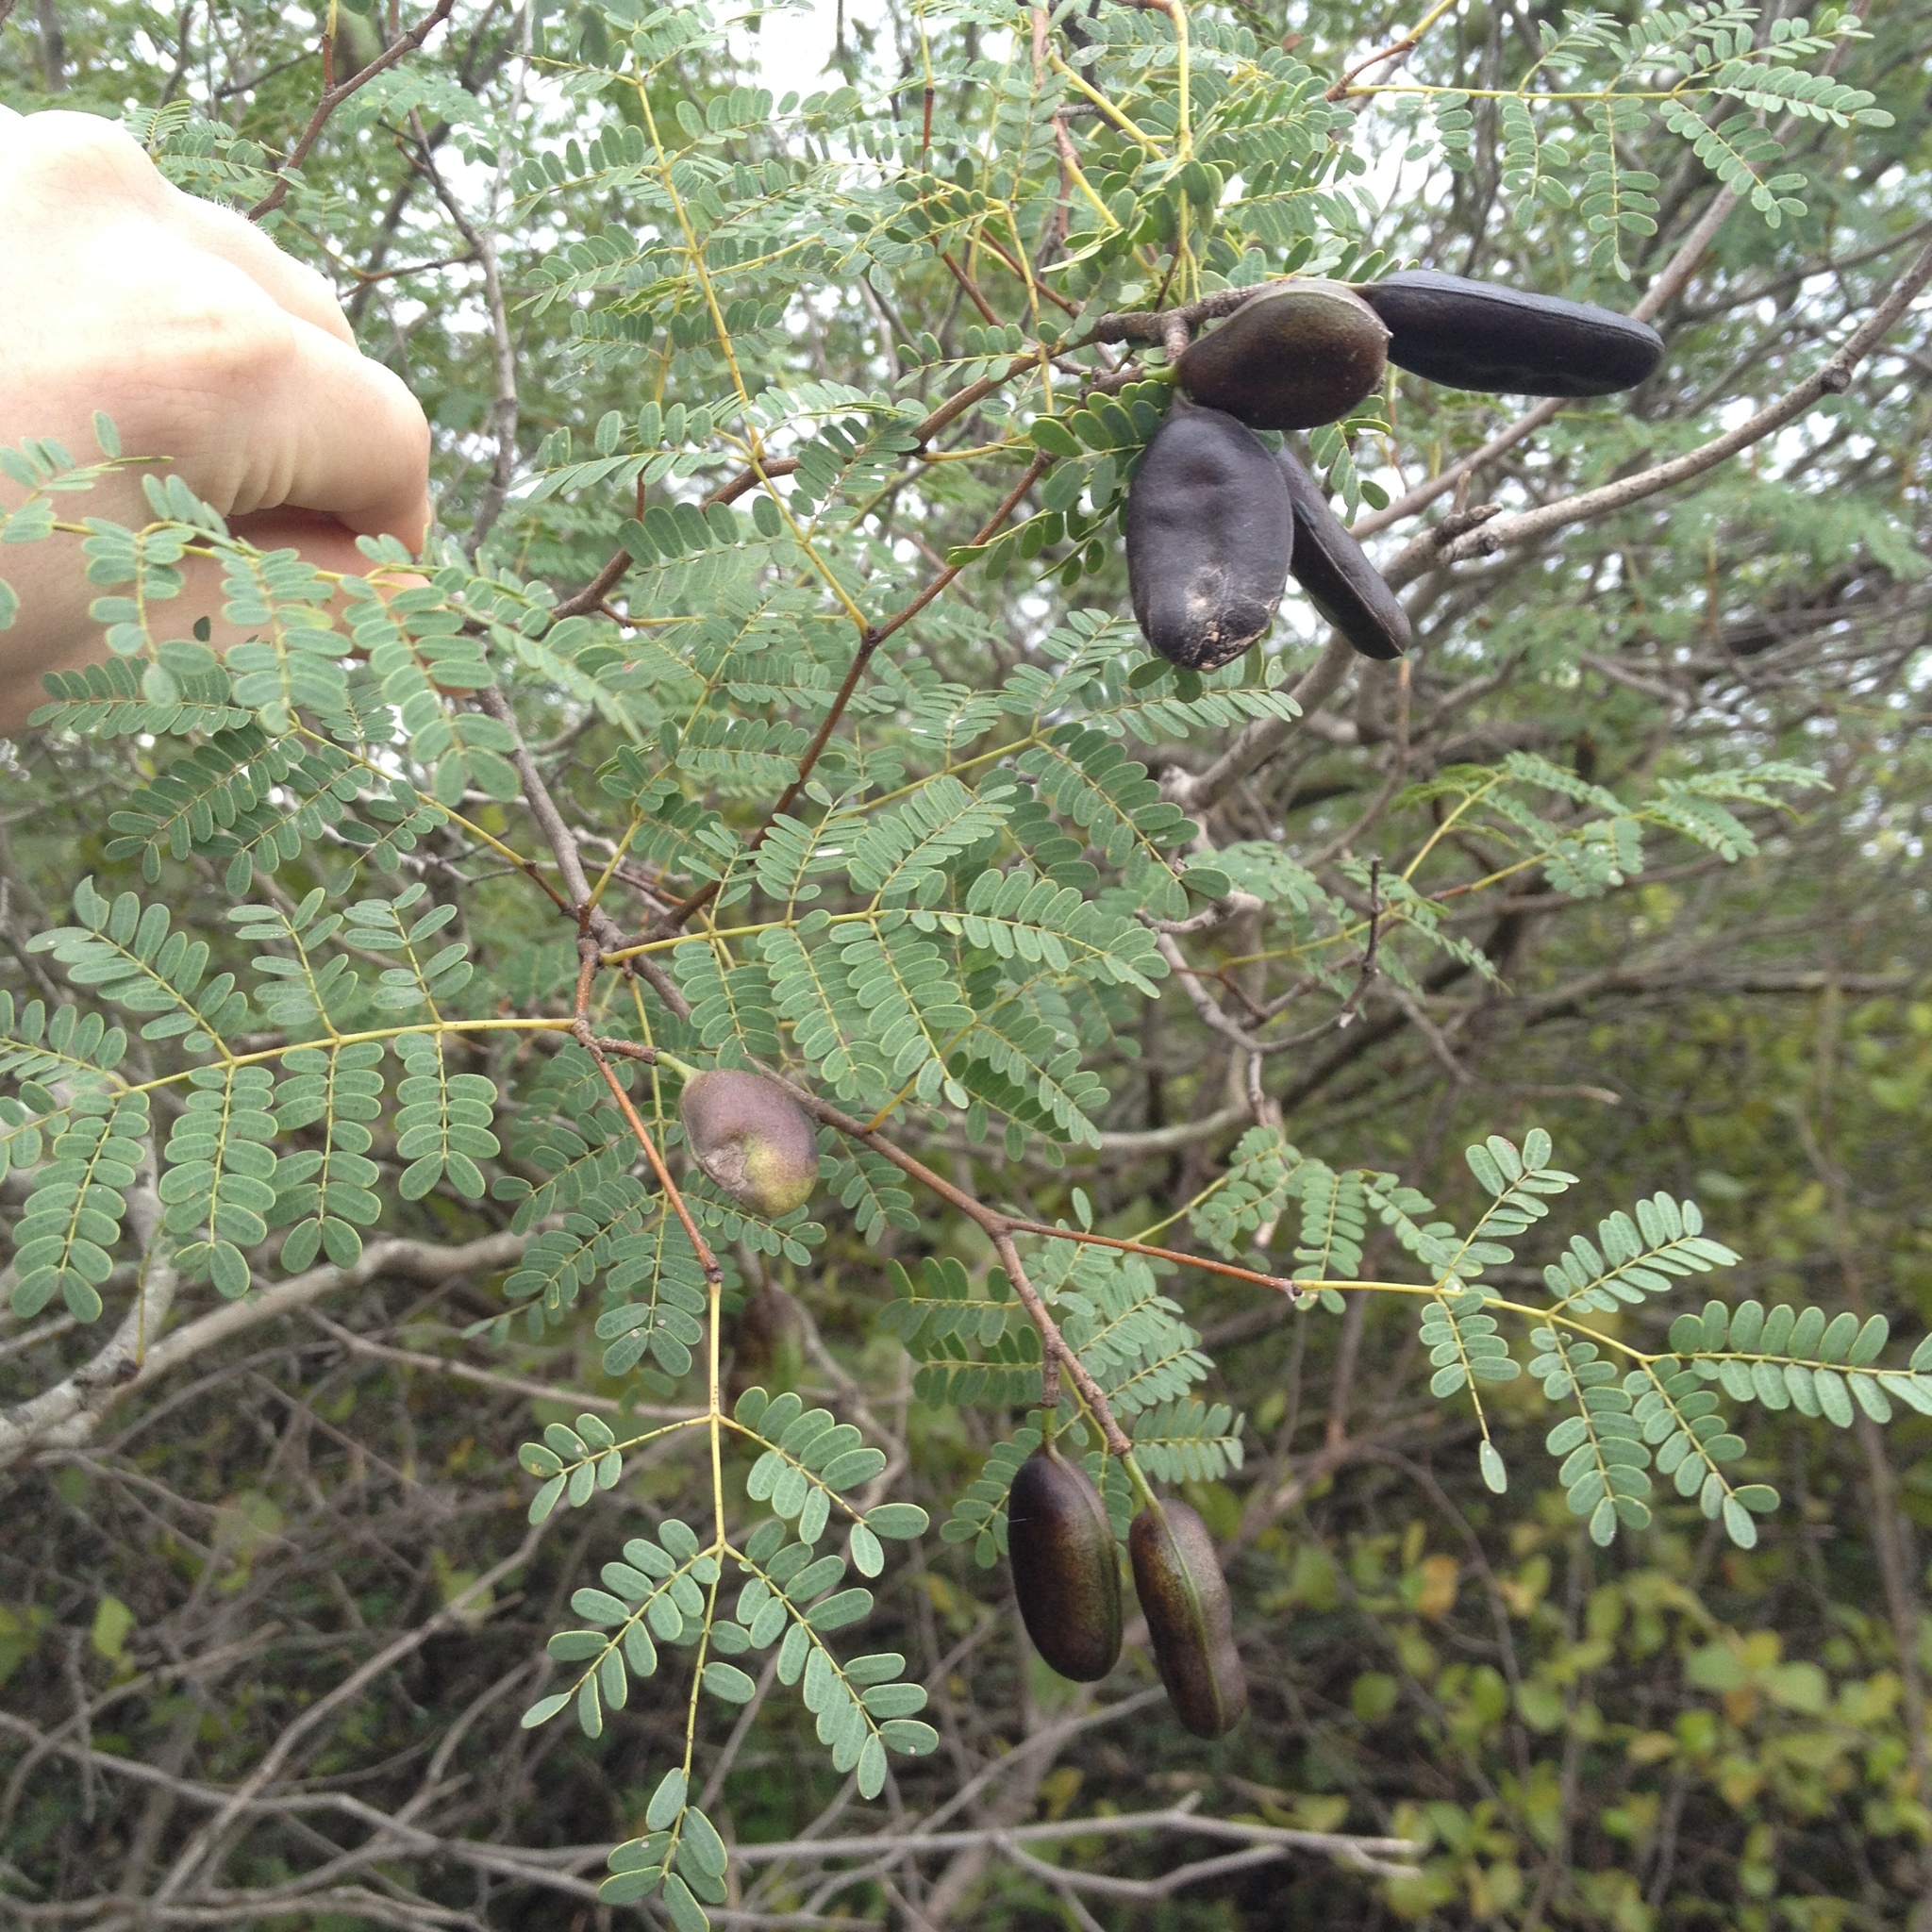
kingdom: Plantae
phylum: Tracheophyta
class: Magnoliopsida
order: Fabales
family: Fabaceae
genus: Libidibia
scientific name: Libidibia paraguariensis
